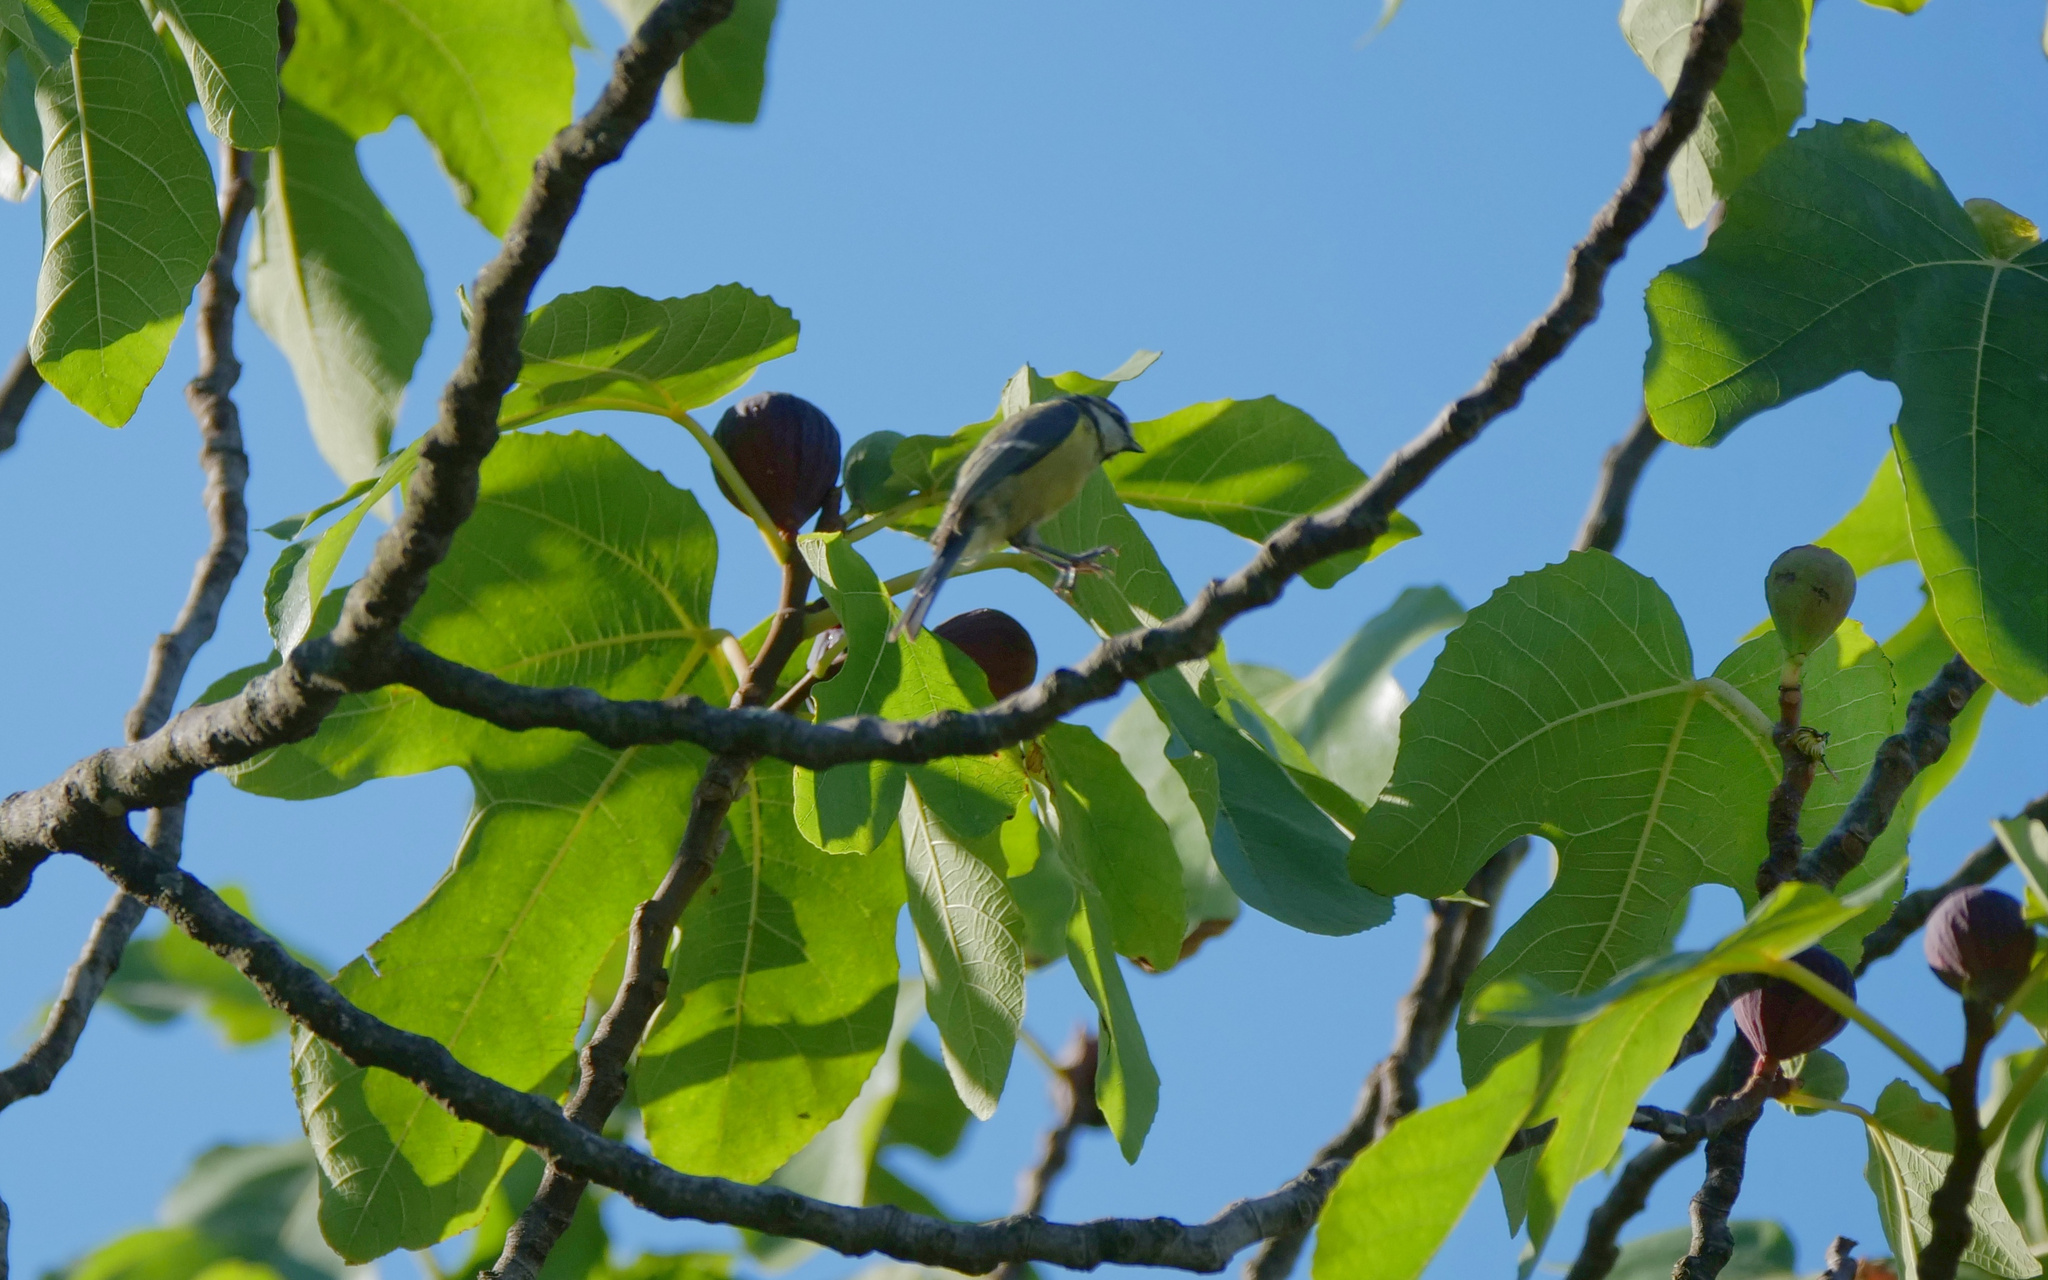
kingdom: Animalia
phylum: Chordata
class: Aves
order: Passeriformes
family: Paridae
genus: Cyanistes
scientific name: Cyanistes caeruleus
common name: Eurasian blue tit
